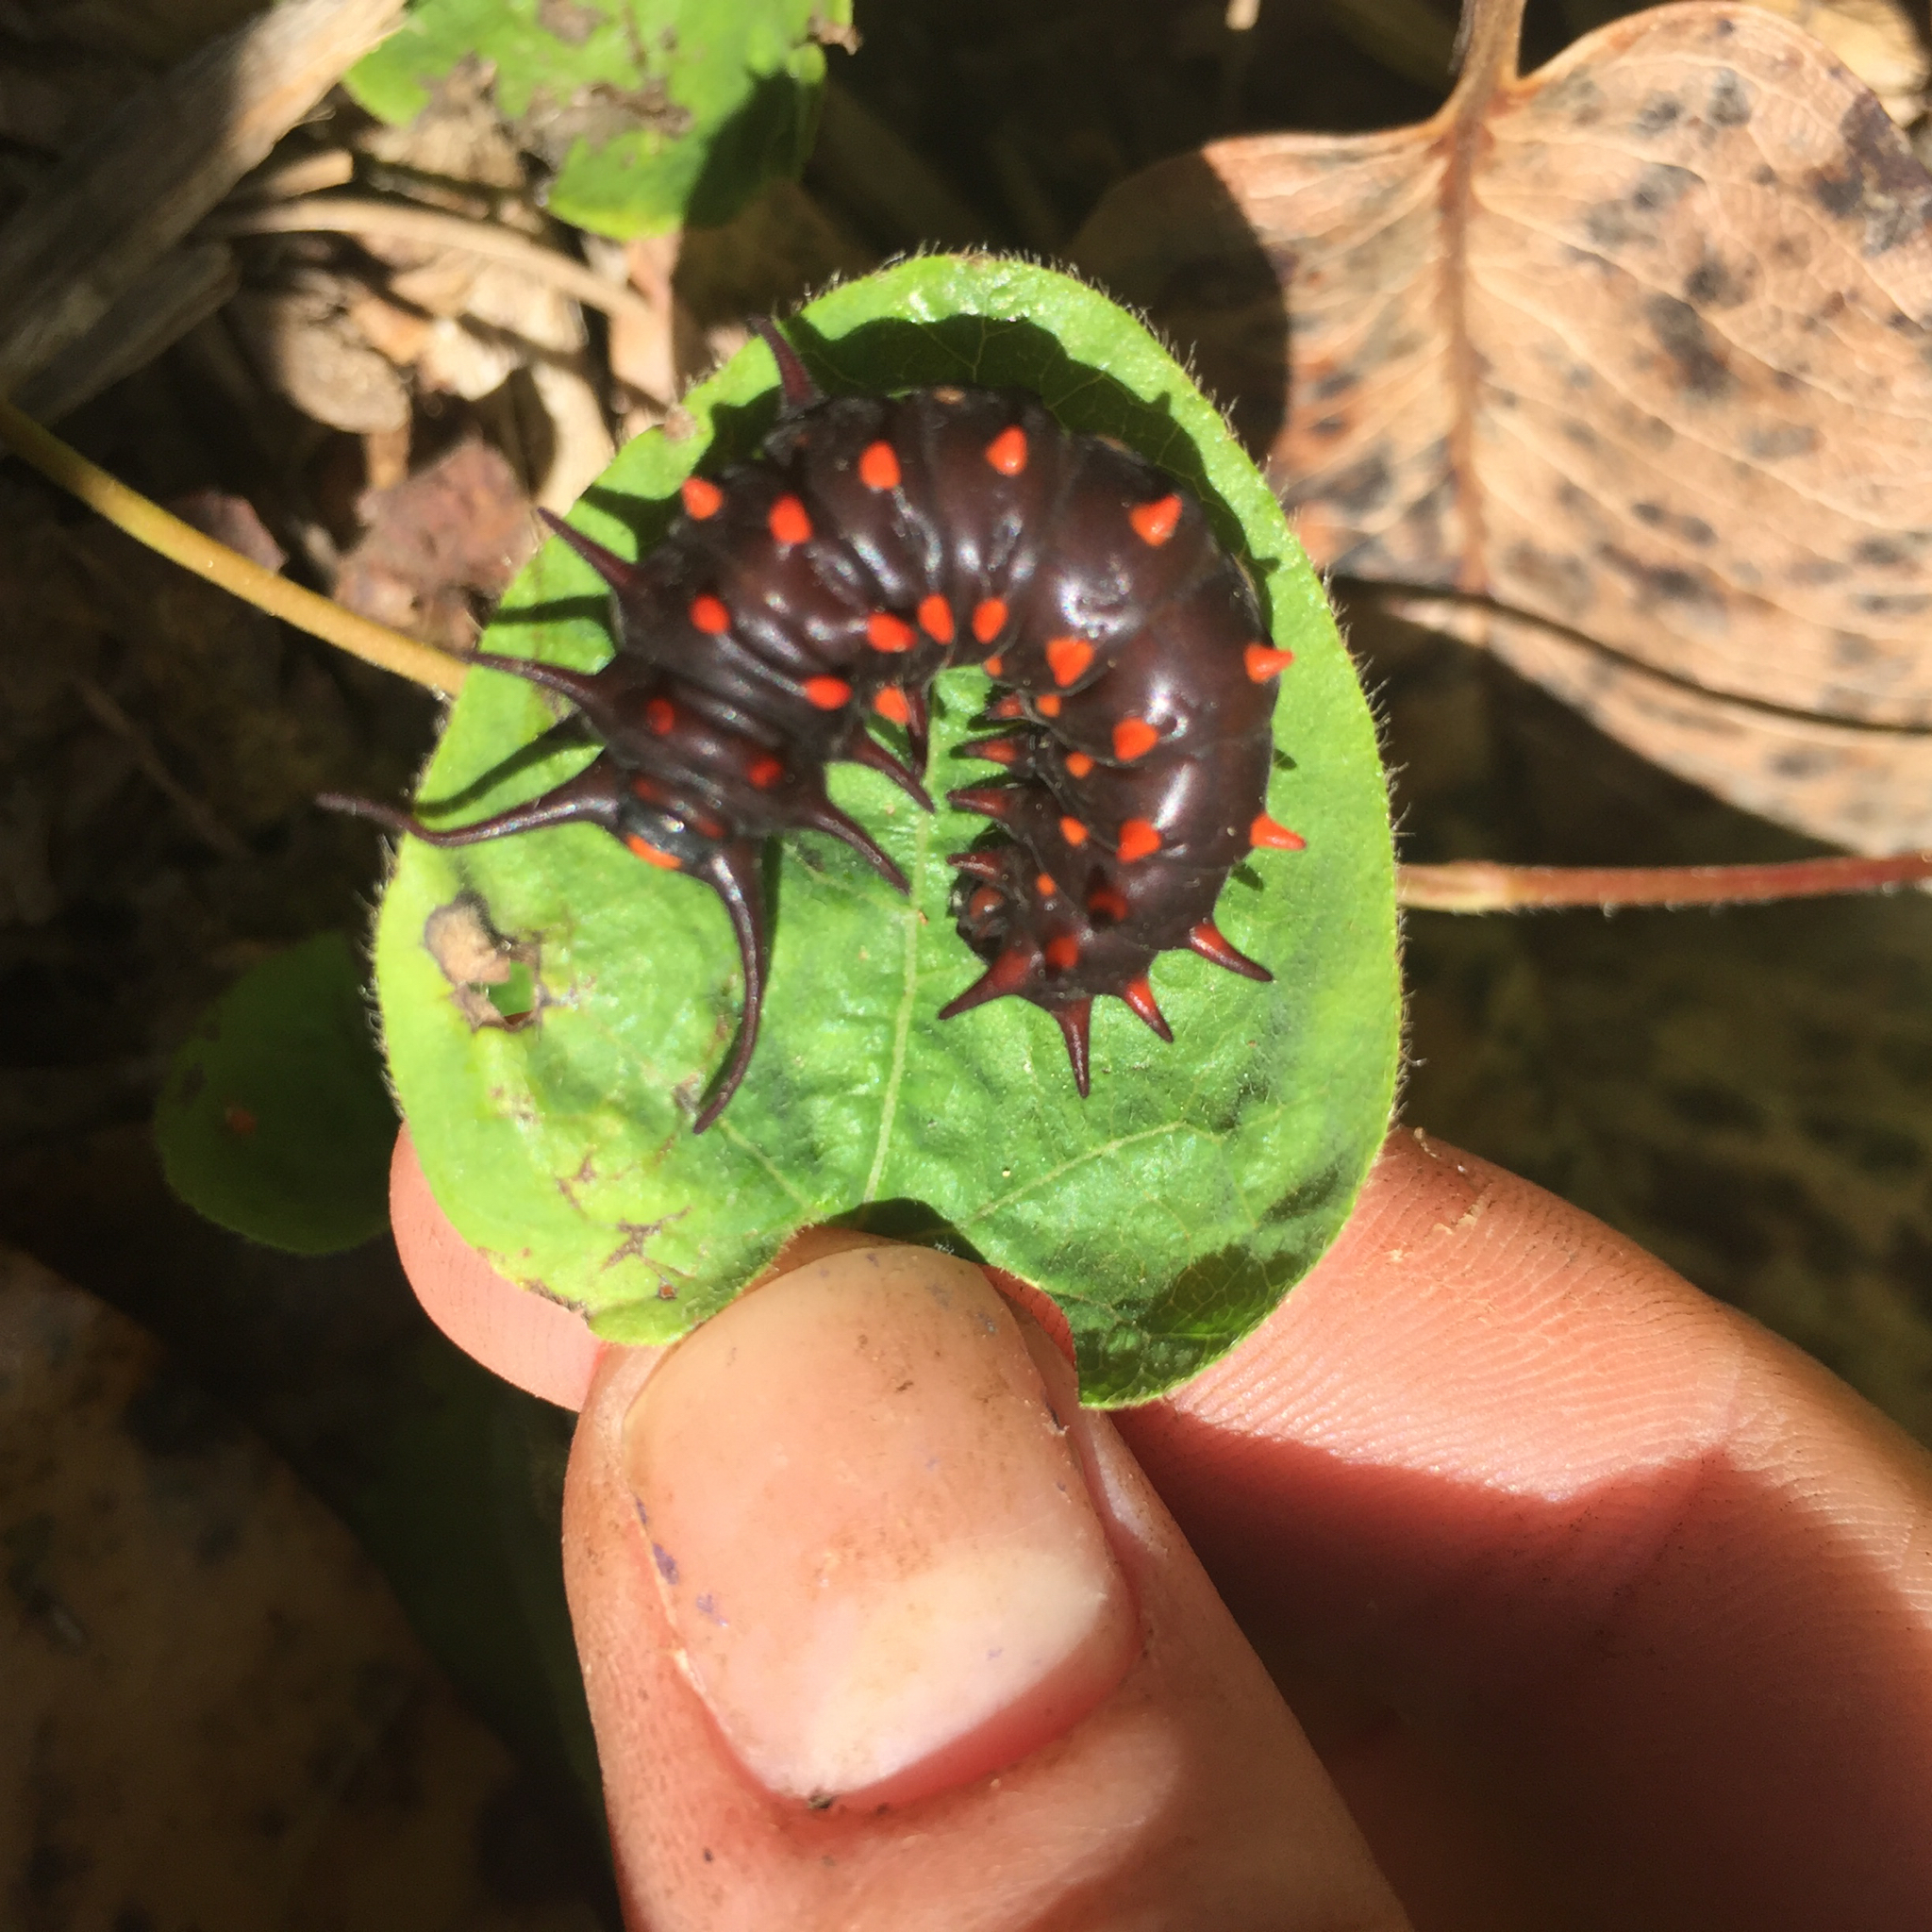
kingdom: Animalia
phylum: Arthropoda
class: Insecta
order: Lepidoptera
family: Papilionidae
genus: Battus
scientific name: Battus philenor
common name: Pipevine swallowtail
